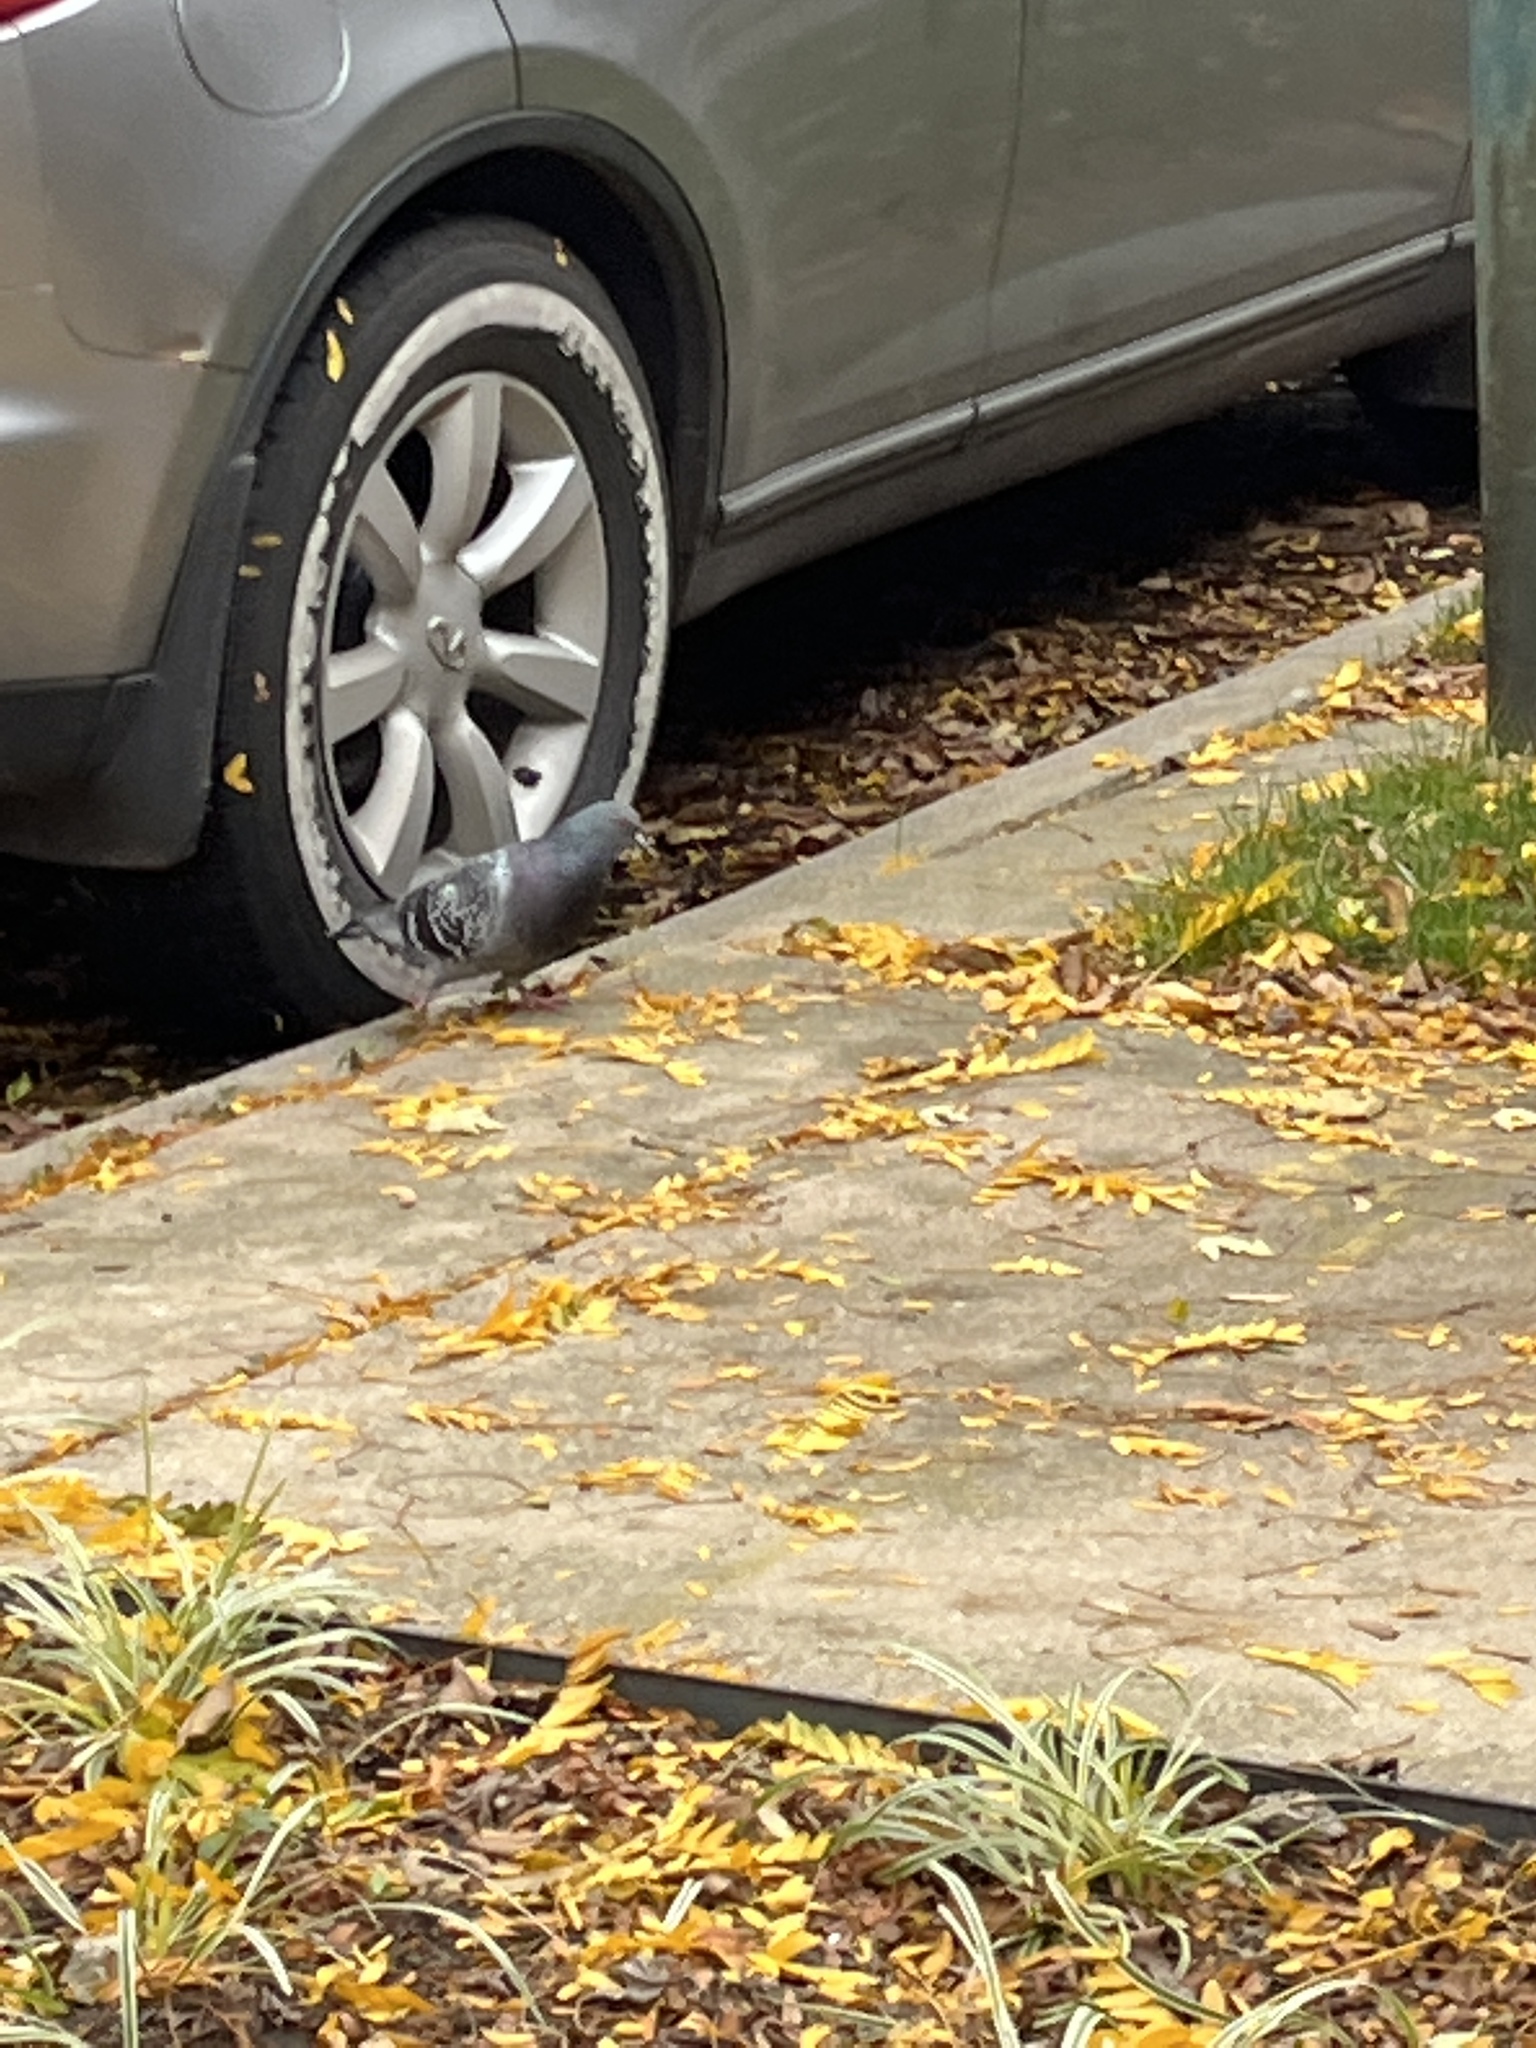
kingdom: Animalia
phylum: Chordata
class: Aves
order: Columbiformes
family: Columbidae
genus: Columba
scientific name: Columba livia
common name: Rock pigeon
